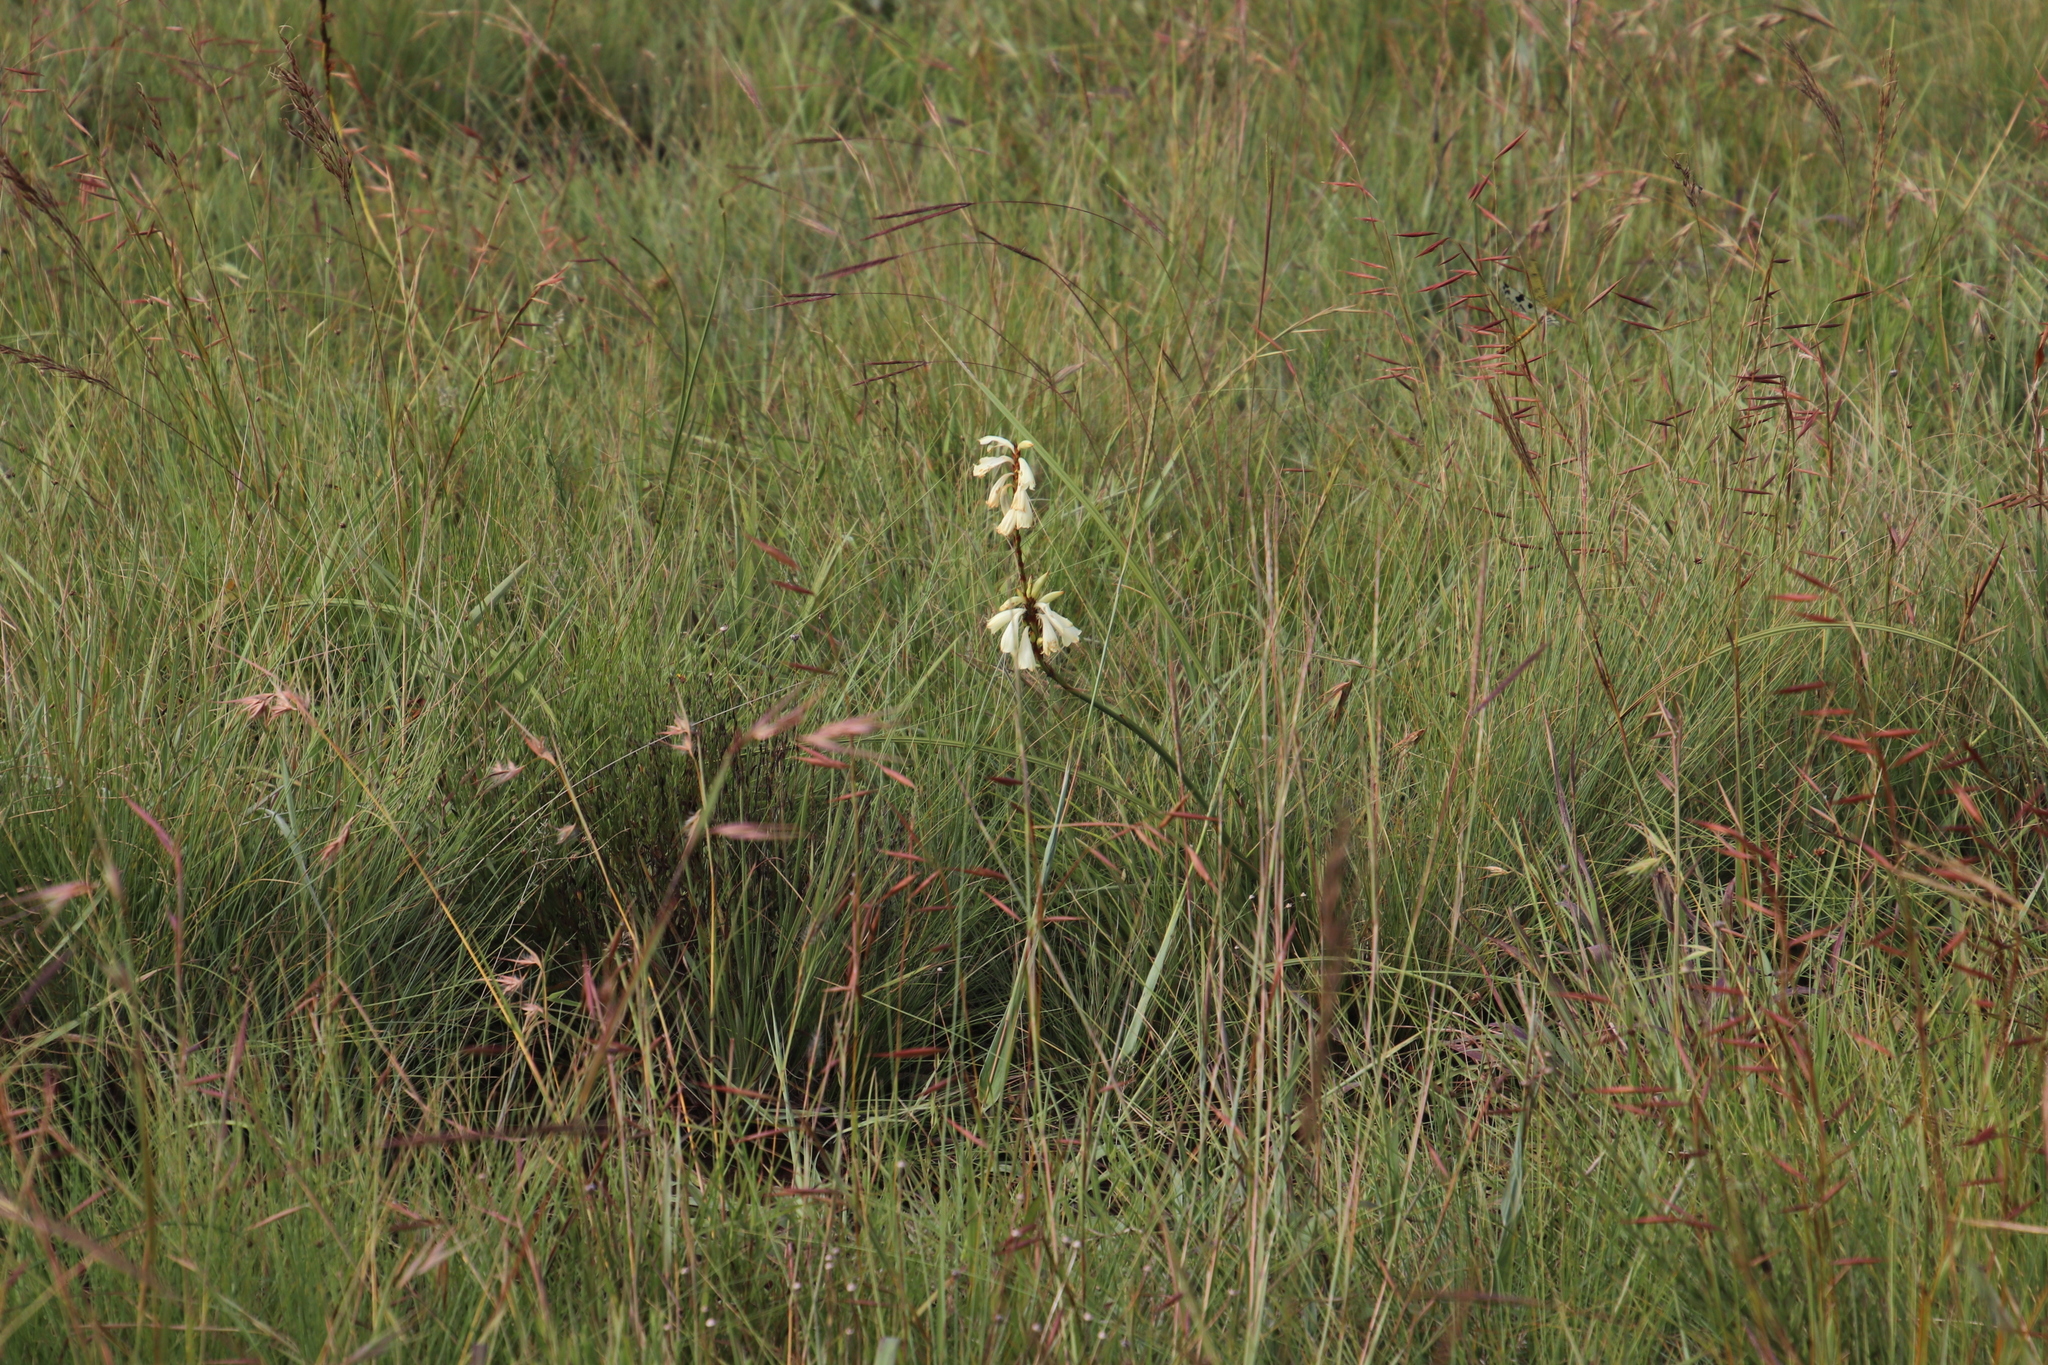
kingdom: Plantae
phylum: Tracheophyta
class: Liliopsida
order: Asparagales
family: Iridaceae
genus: Watsonia
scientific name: Watsonia watsonioides
